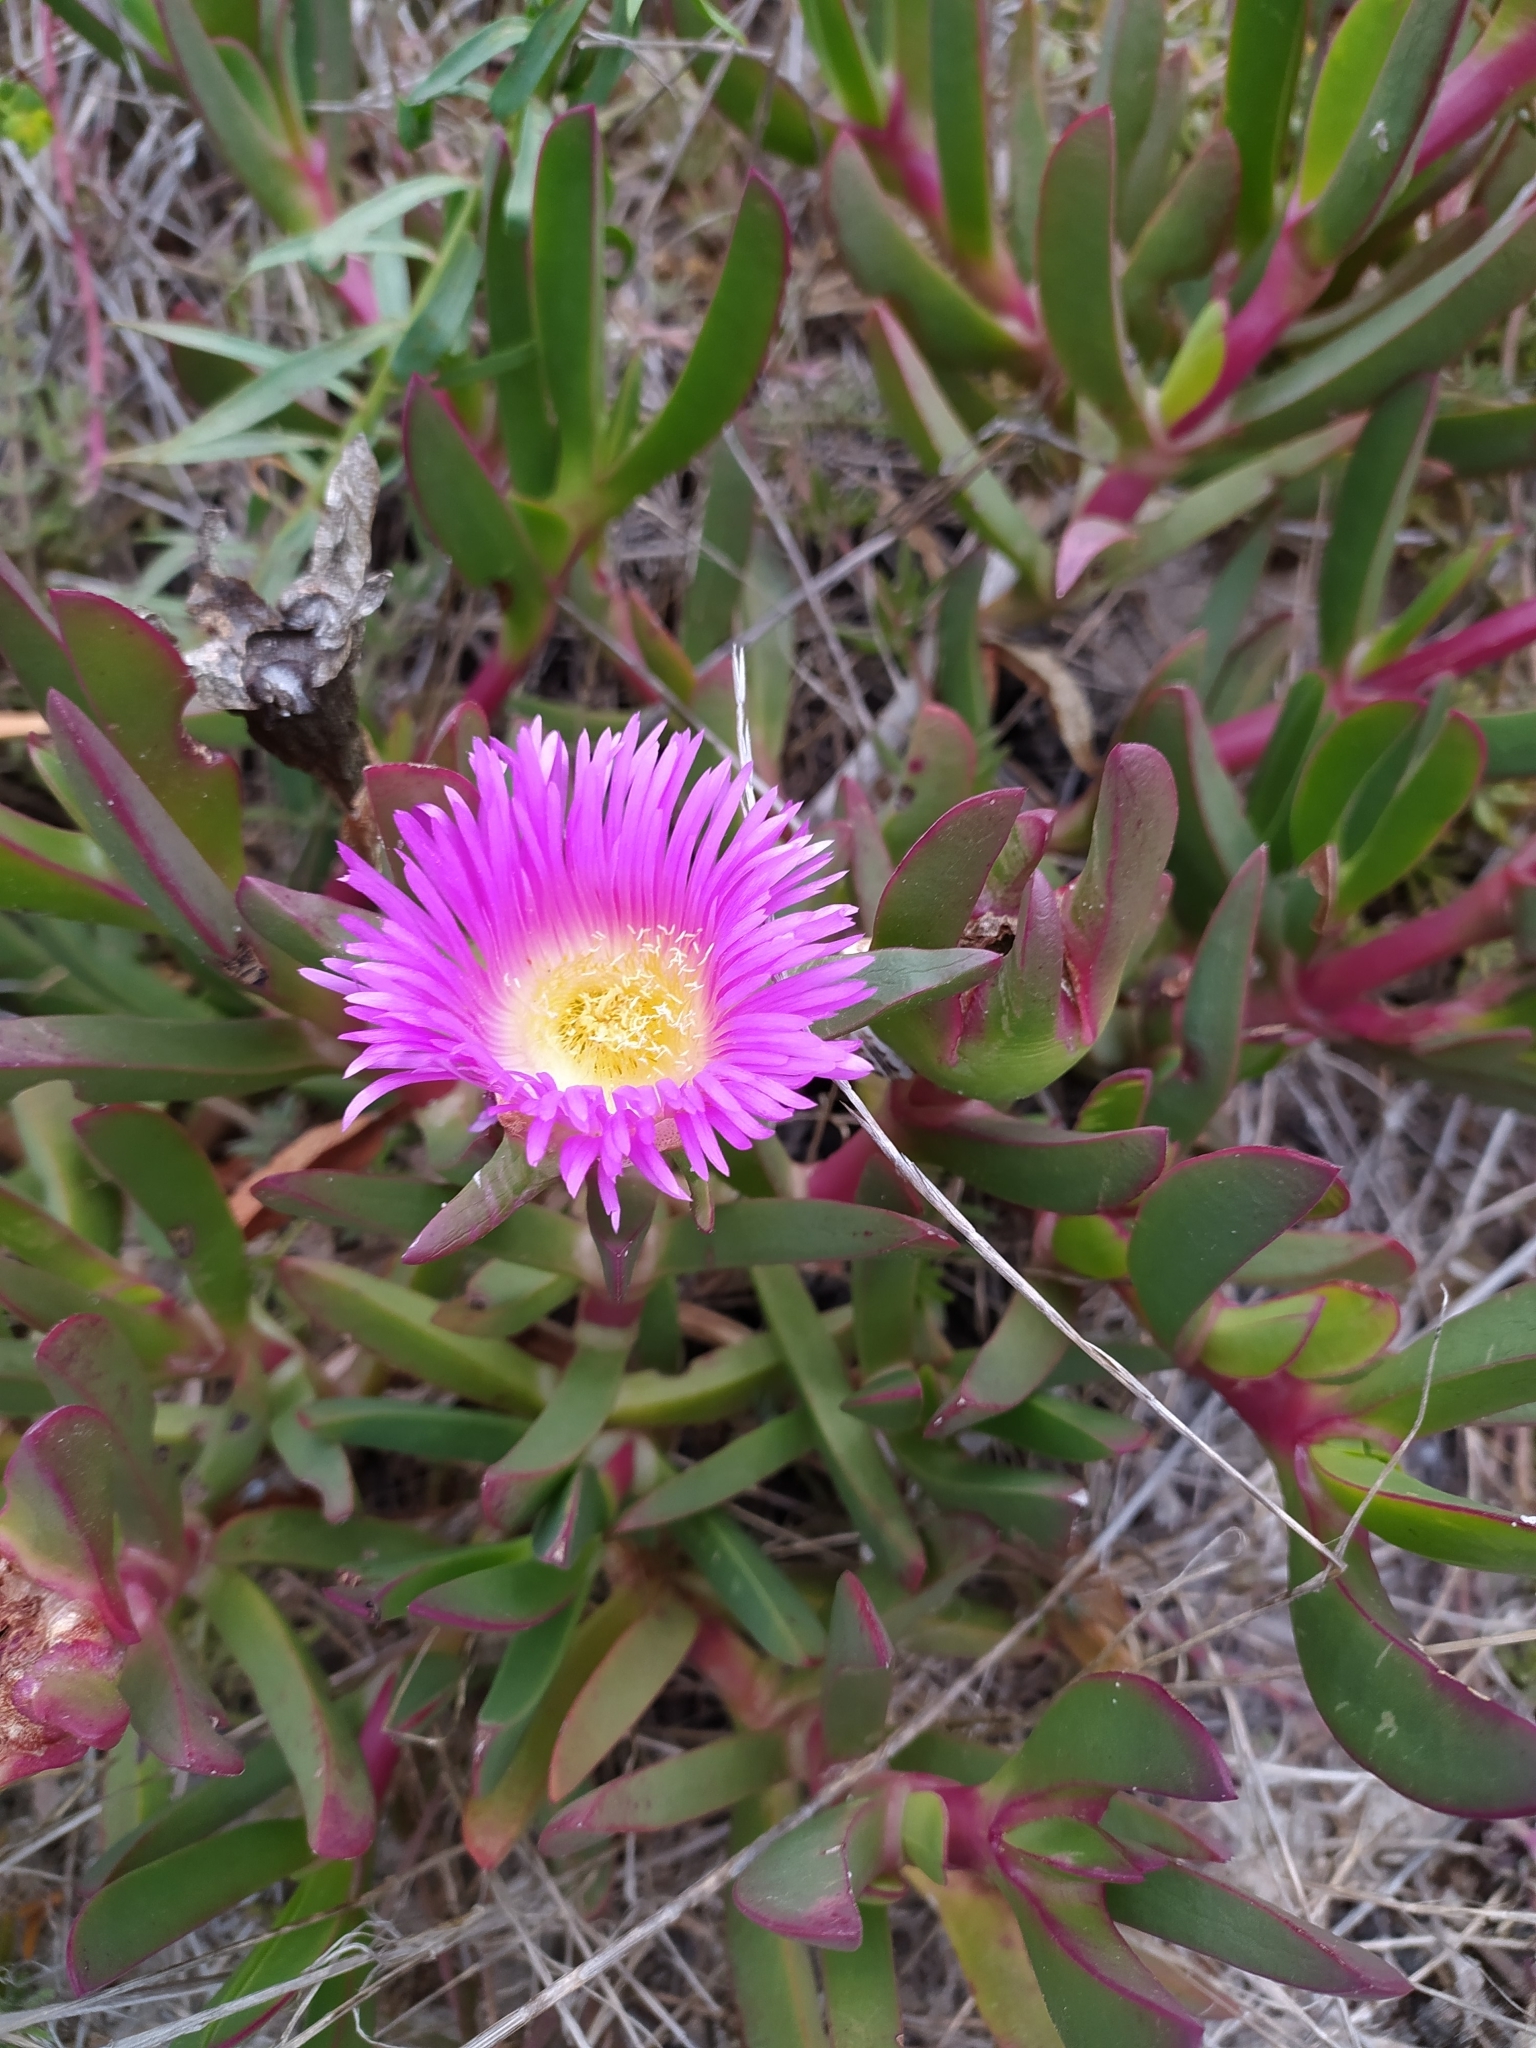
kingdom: Plantae
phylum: Tracheophyta
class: Magnoliopsida
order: Caryophyllales
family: Aizoaceae
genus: Carpobrotus
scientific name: Carpobrotus acinaciformis
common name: Sally-my-handsome
